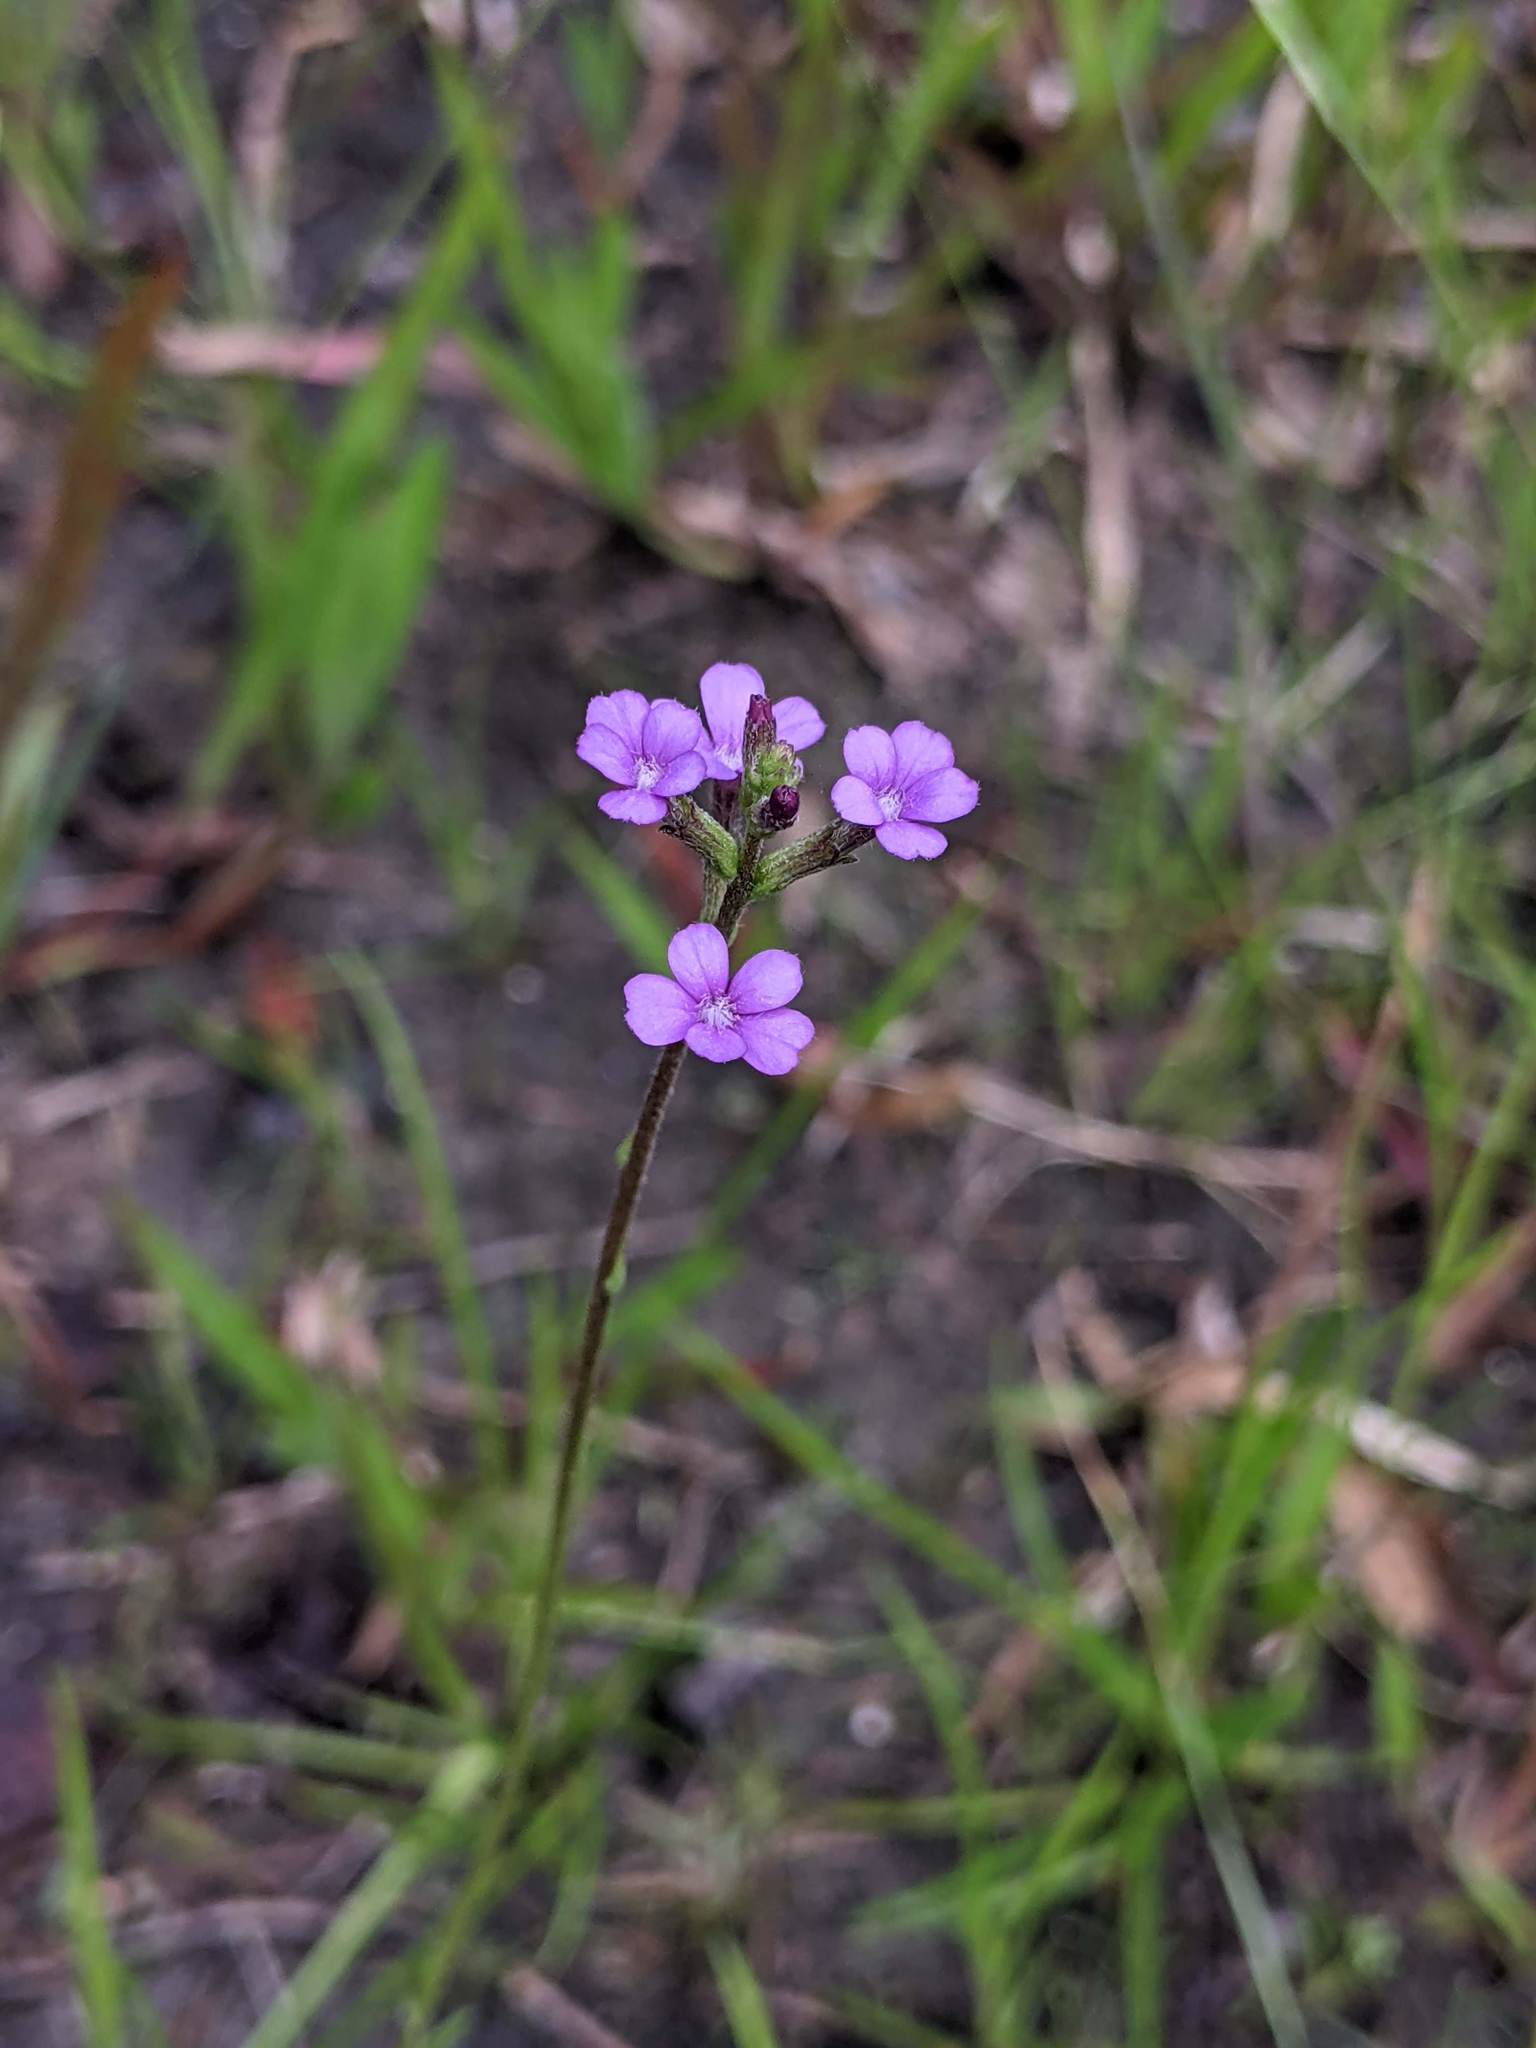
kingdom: Plantae
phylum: Tracheophyta
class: Magnoliopsida
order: Lamiales
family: Orobanchaceae
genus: Buchnera
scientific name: Buchnera floridana
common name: Florida bluehearts
